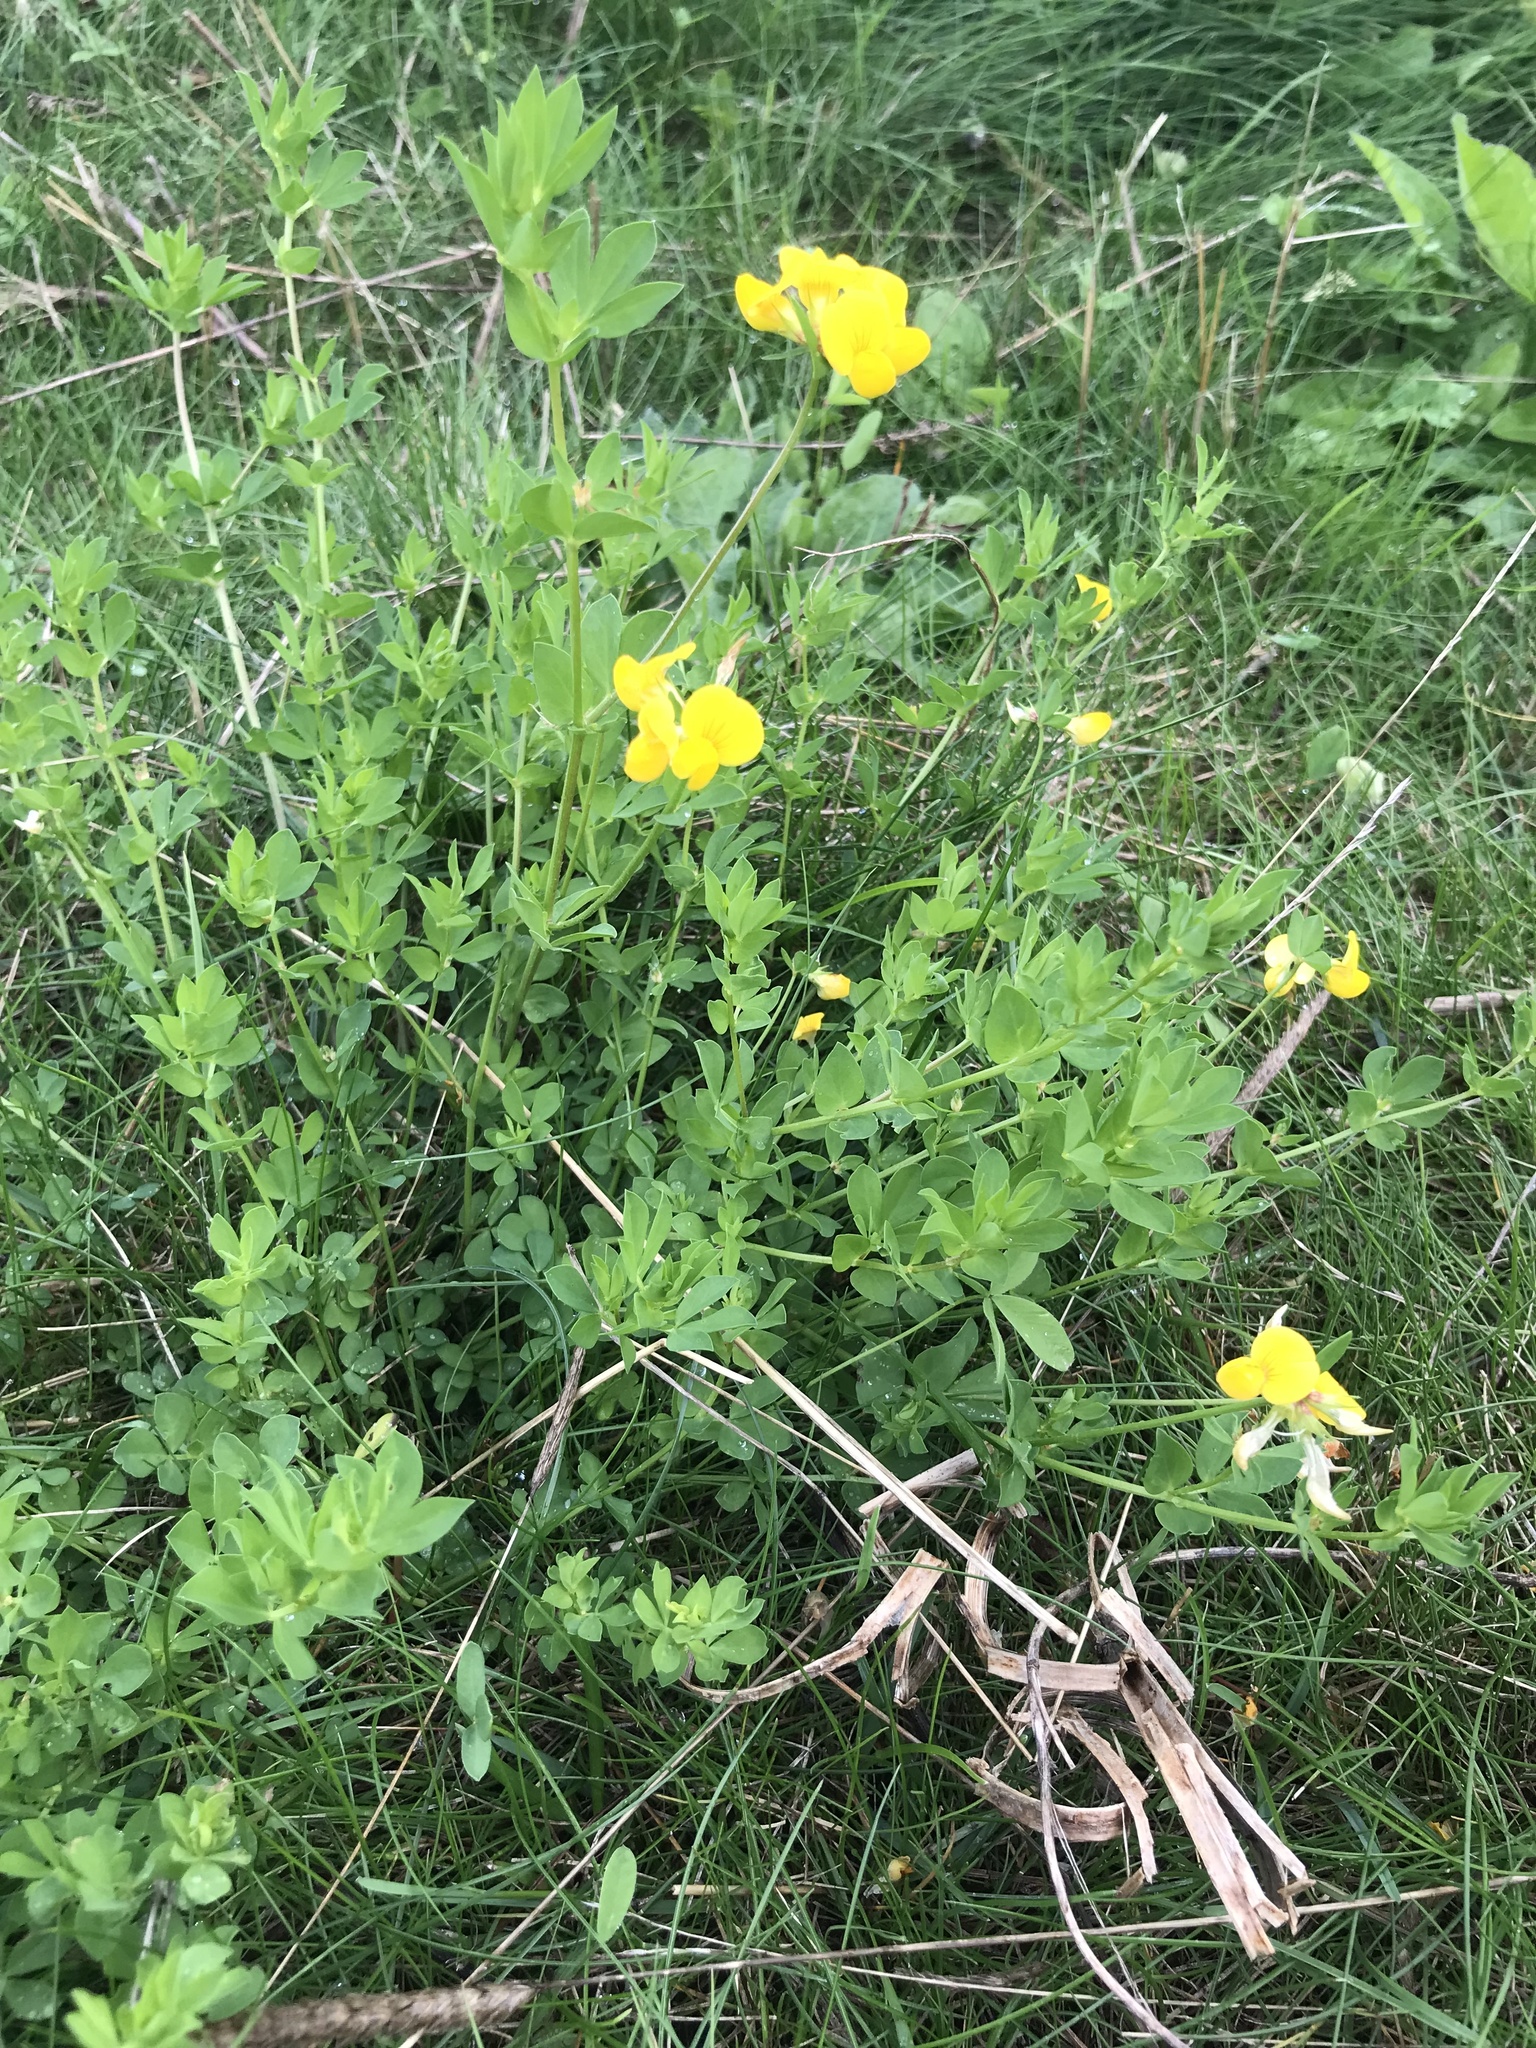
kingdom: Plantae
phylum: Tracheophyta
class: Magnoliopsida
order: Fabales
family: Fabaceae
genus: Lotus
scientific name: Lotus corniculatus
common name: Common bird's-foot-trefoil
